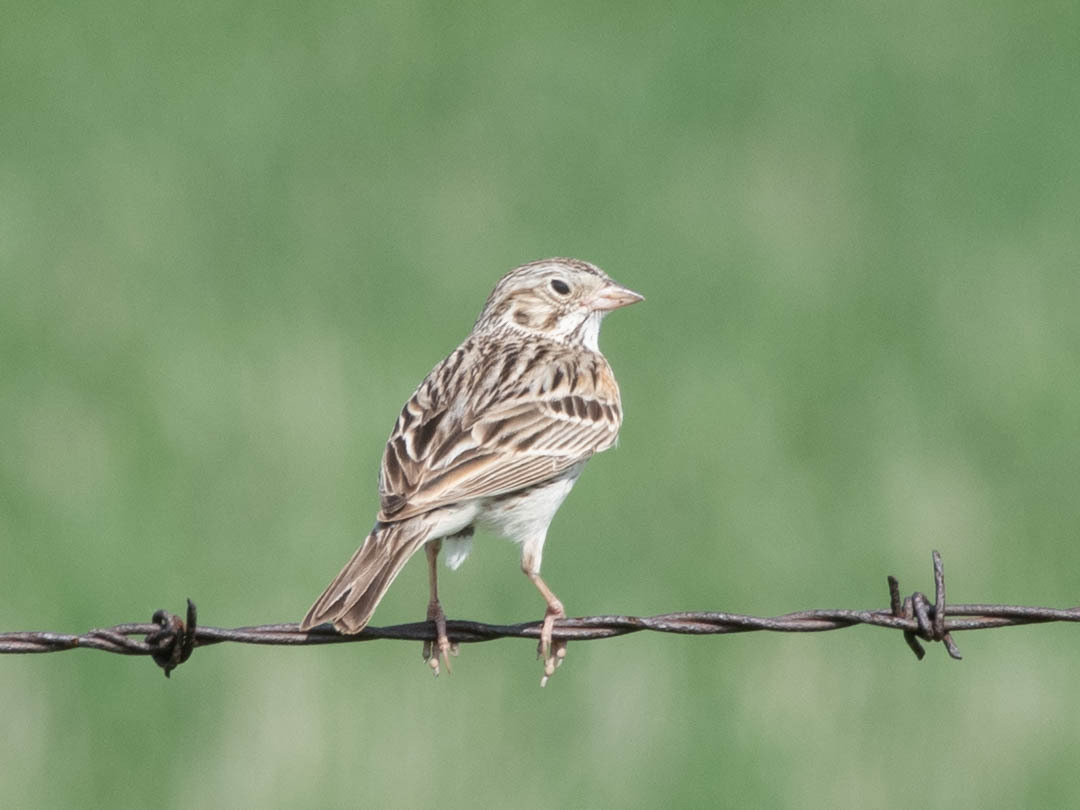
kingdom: Animalia
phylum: Chordata
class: Aves
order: Passeriformes
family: Passerellidae
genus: Pooecetes
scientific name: Pooecetes gramineus
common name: Vesper sparrow
